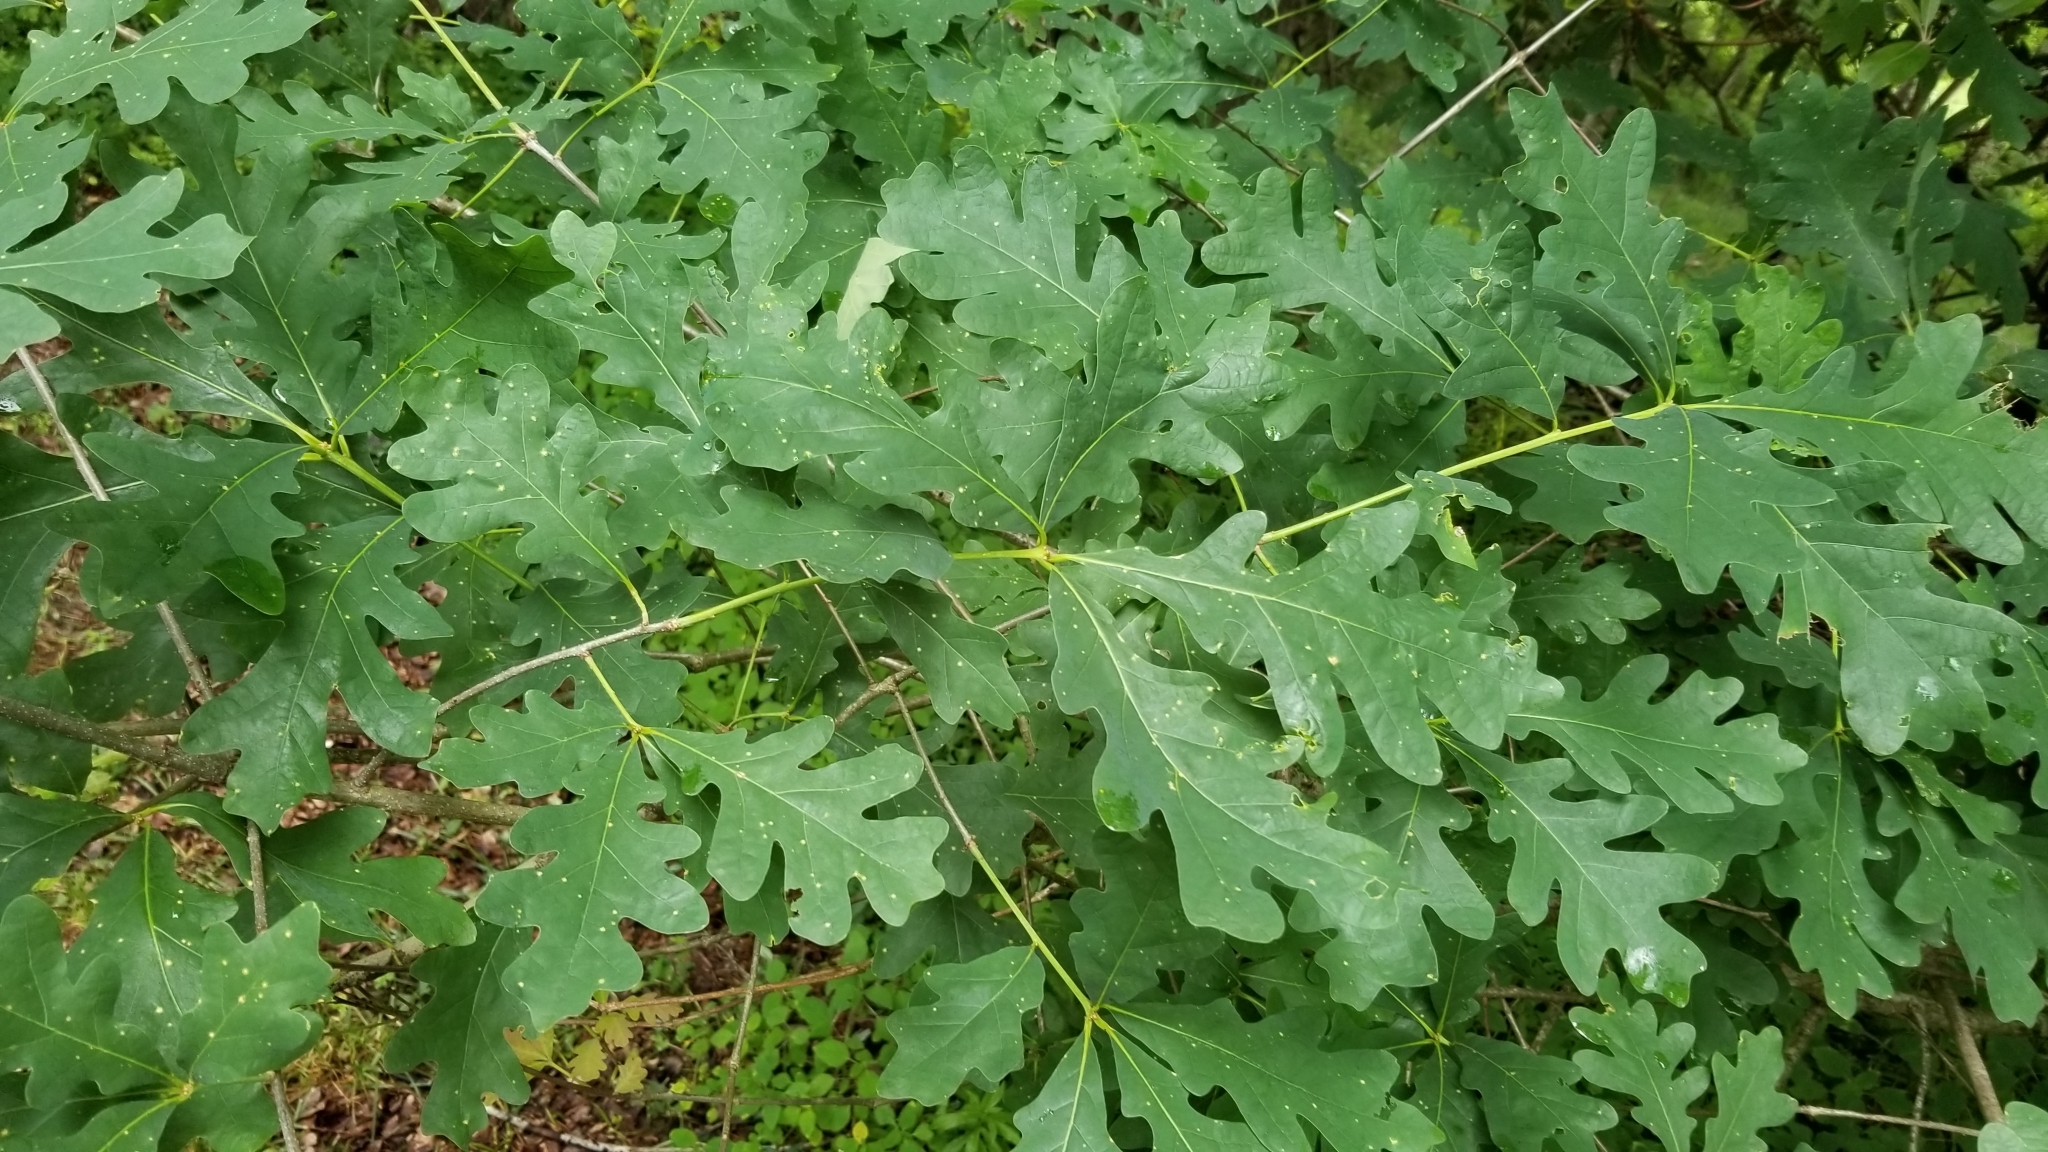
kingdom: Plantae
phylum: Tracheophyta
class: Magnoliopsida
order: Fagales
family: Fagaceae
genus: Quercus
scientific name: Quercus alba
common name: White oak
